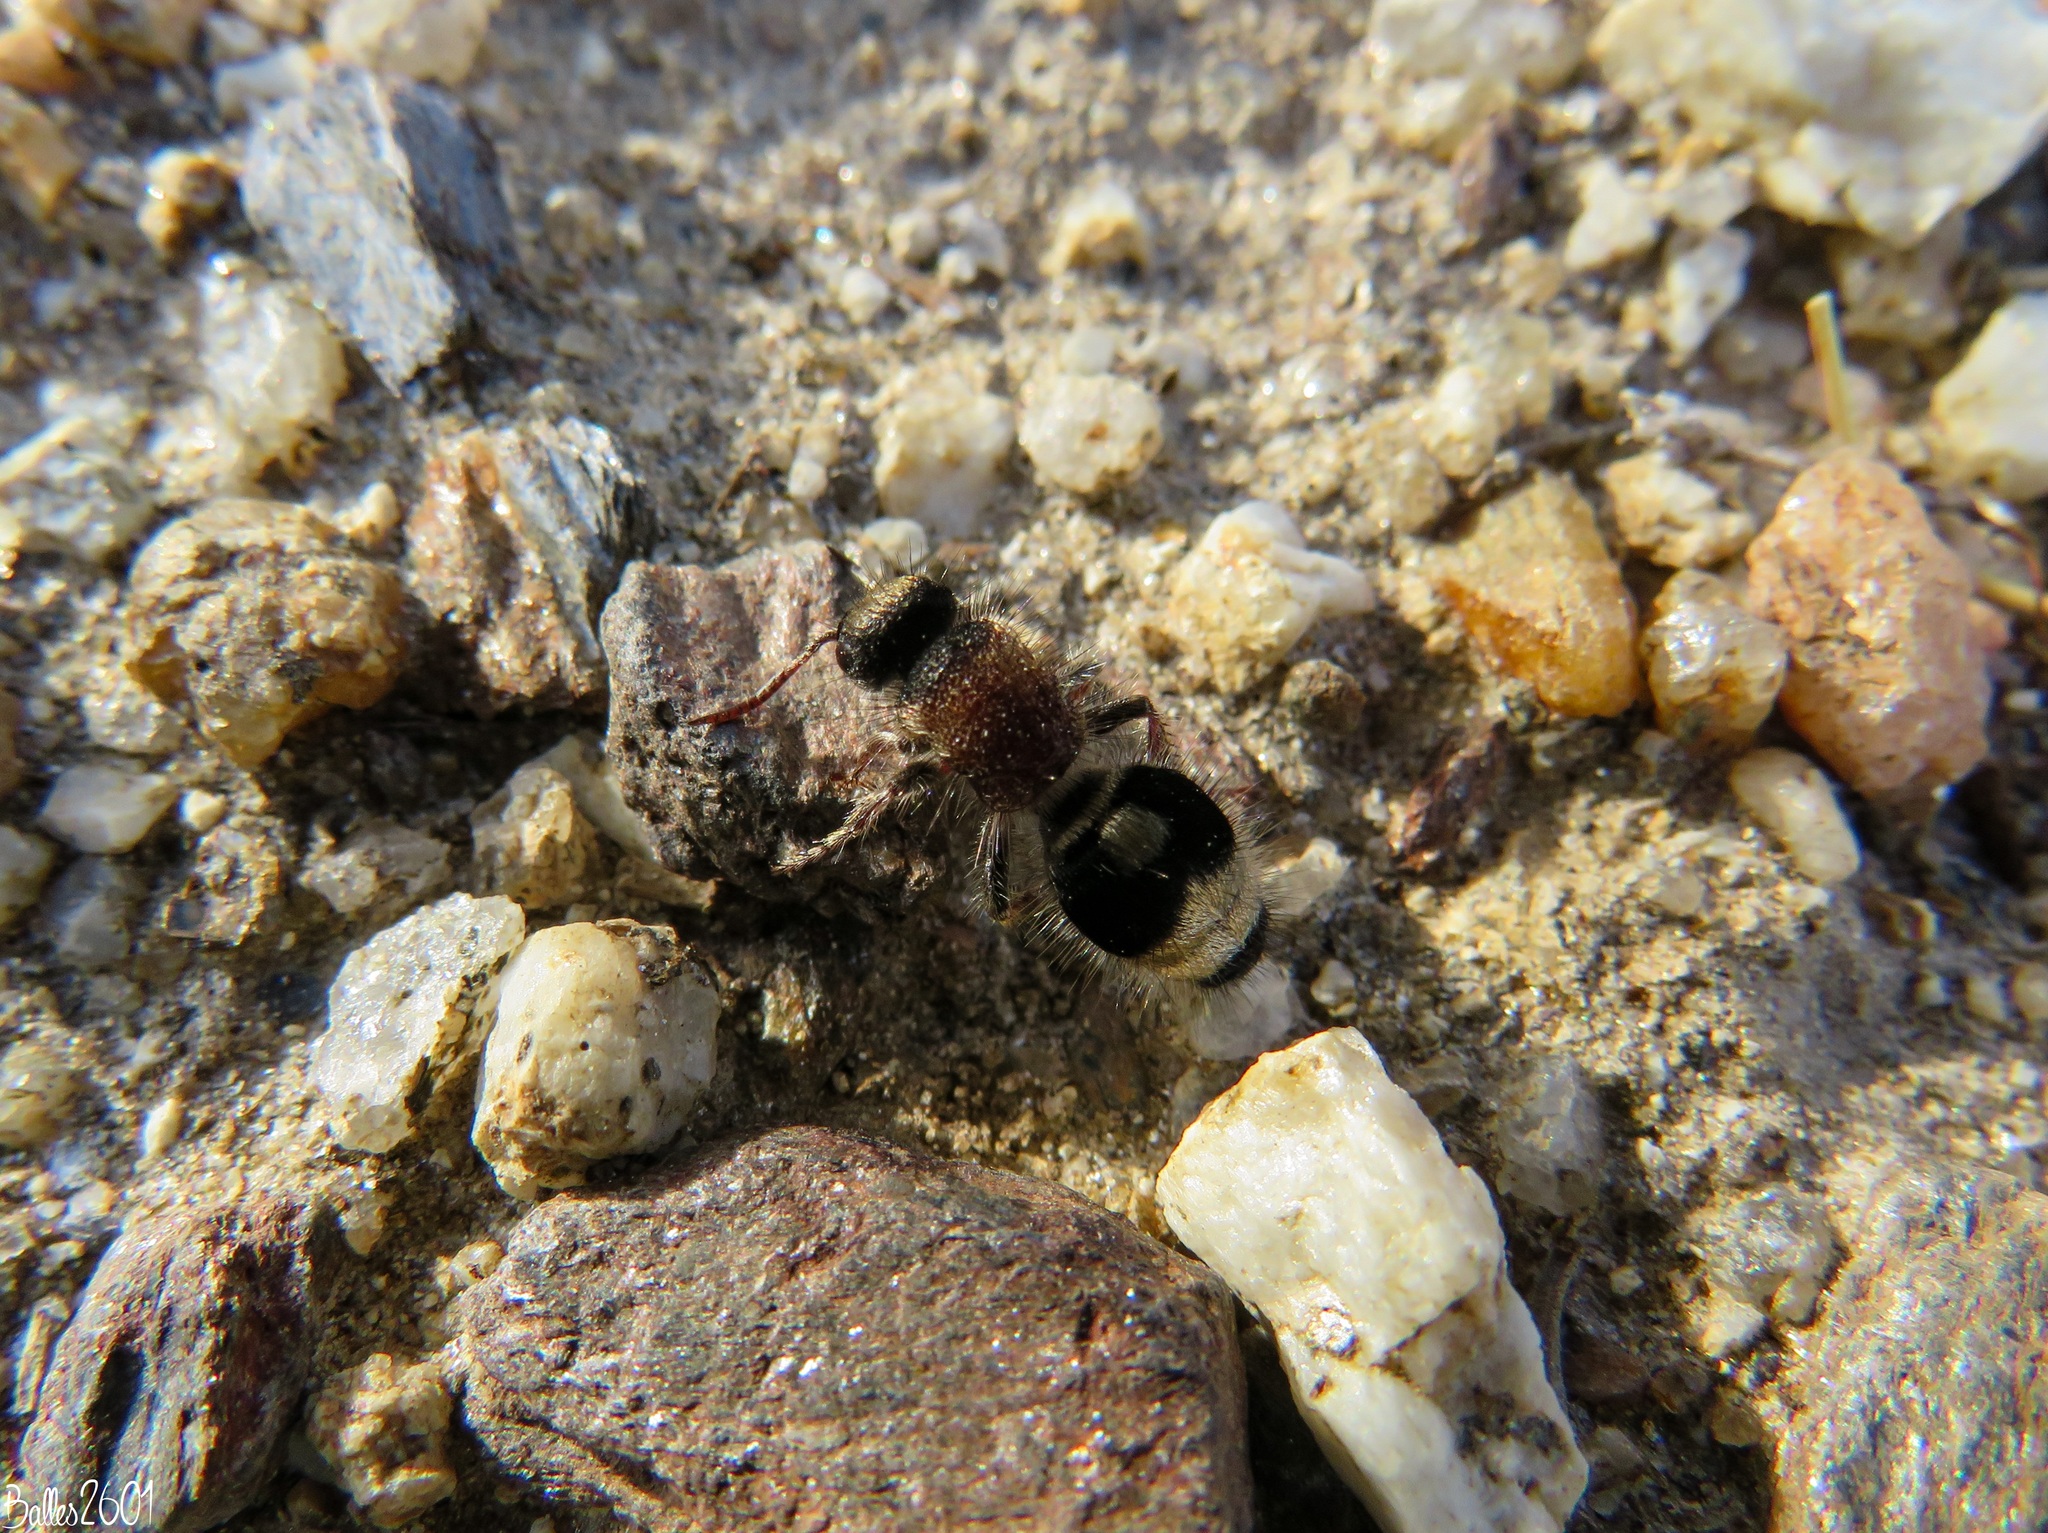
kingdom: Animalia
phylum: Arthropoda
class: Insecta
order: Hymenoptera
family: Mutillidae
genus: Nemka
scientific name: Nemka viduata
